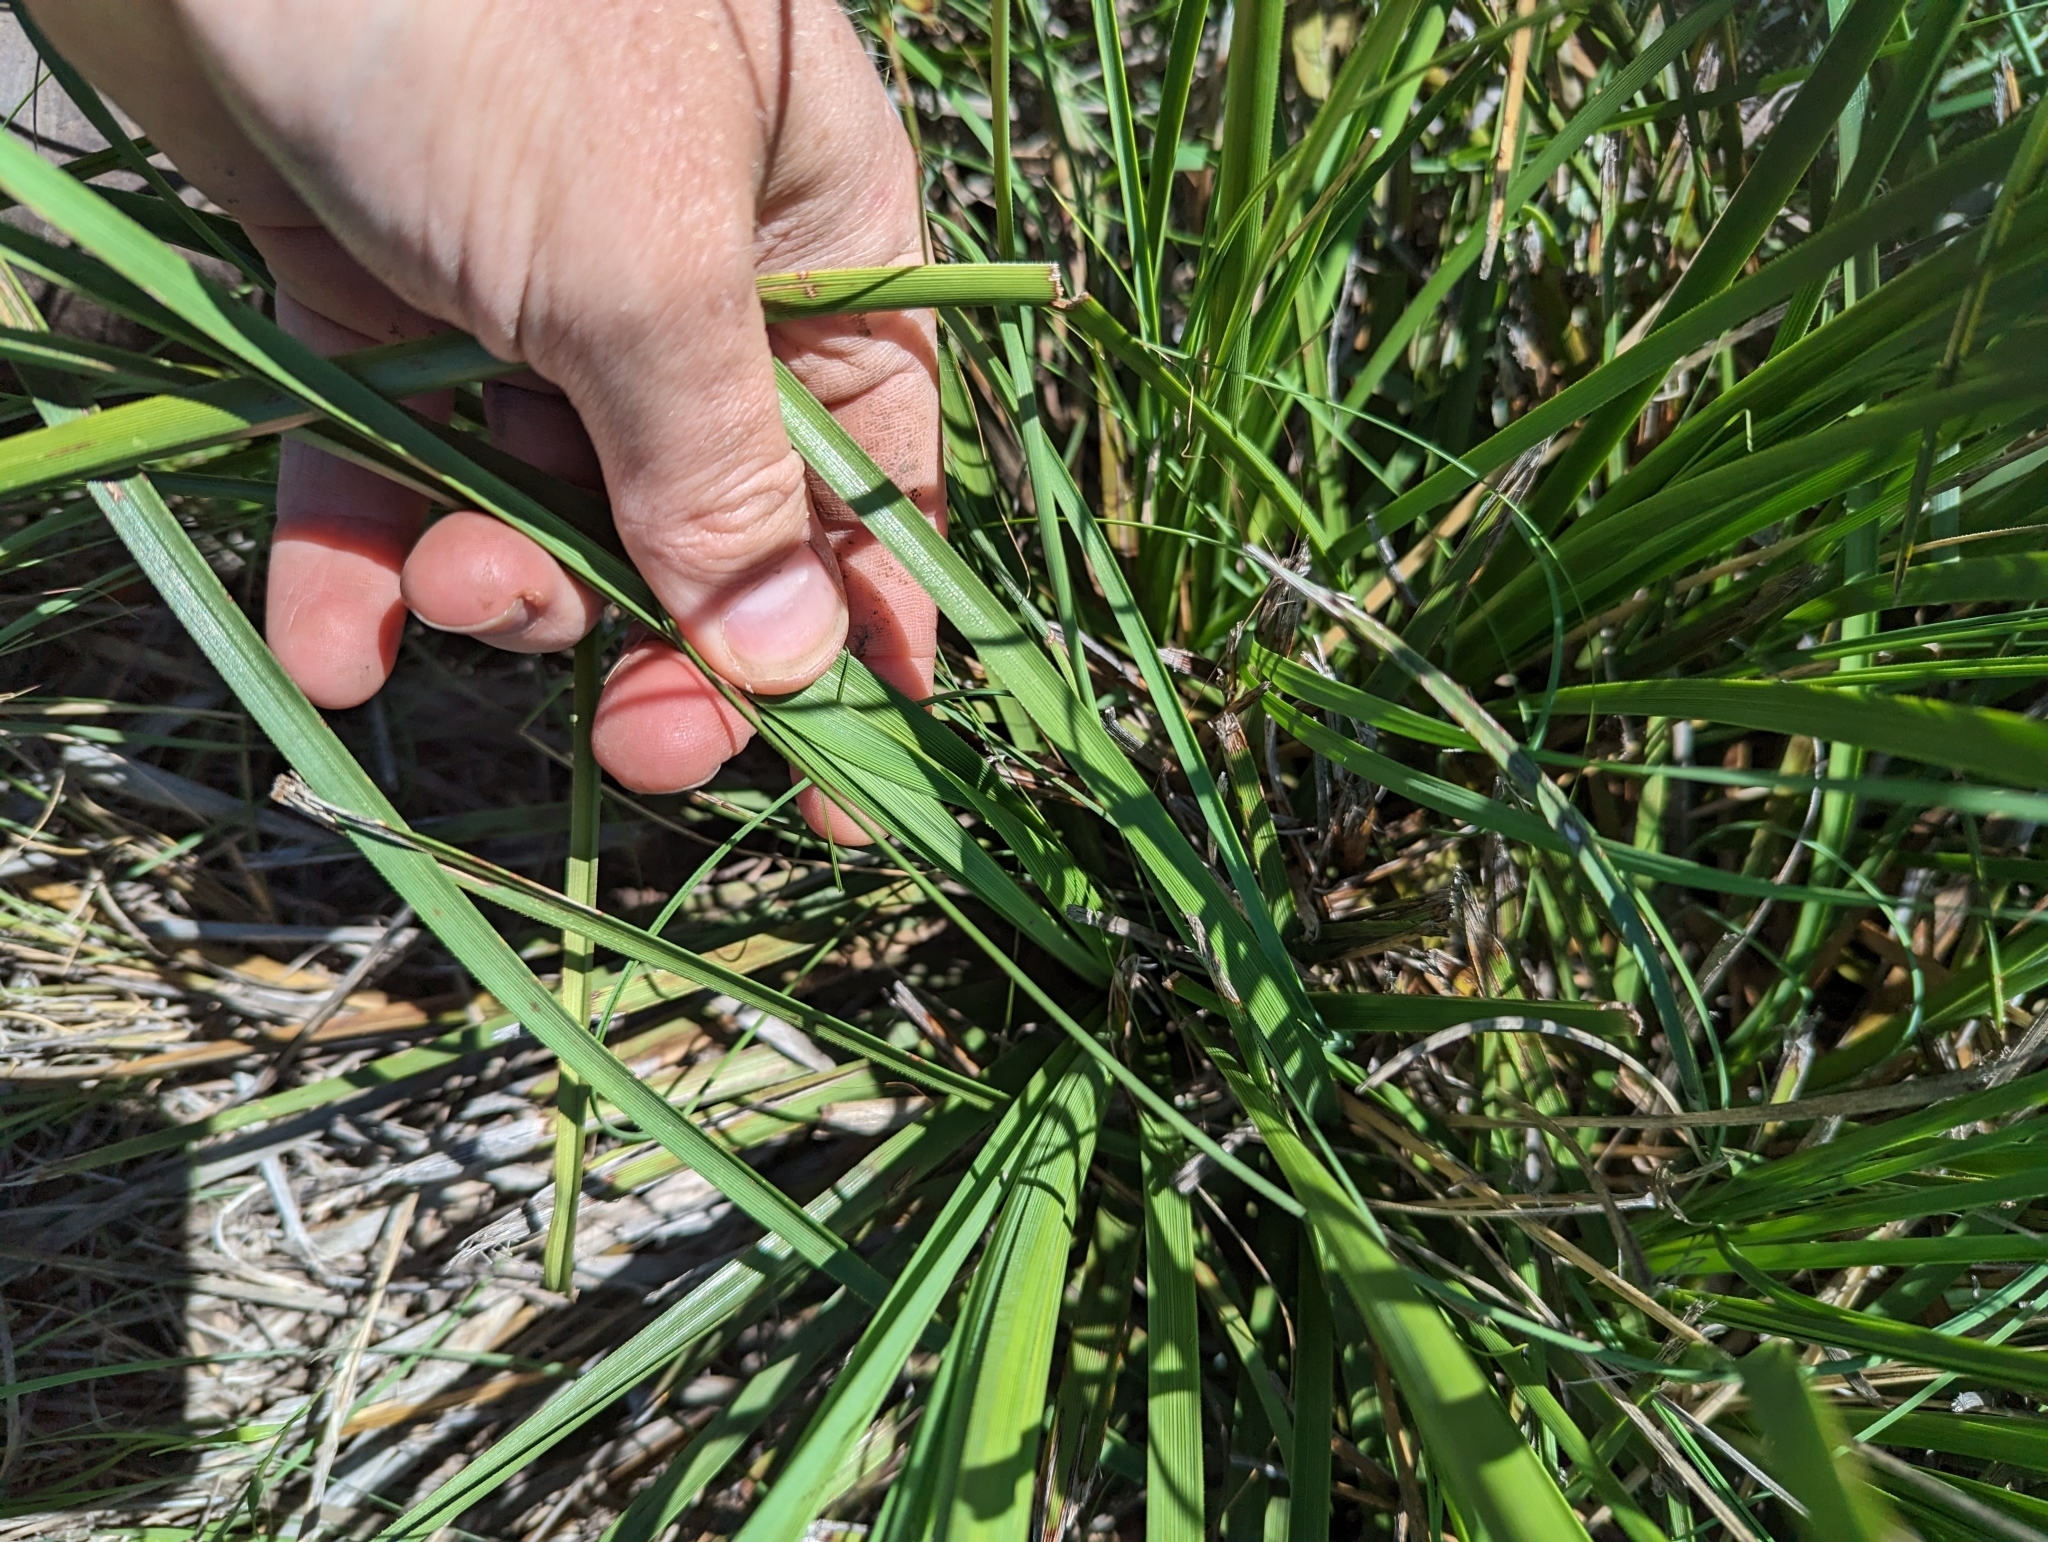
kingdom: Plantae
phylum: Tracheophyta
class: Liliopsida
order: Asparagales
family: Asparagaceae
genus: Nolina
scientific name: Nolina lindheimeriana
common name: Lindheimer's bear-grass
